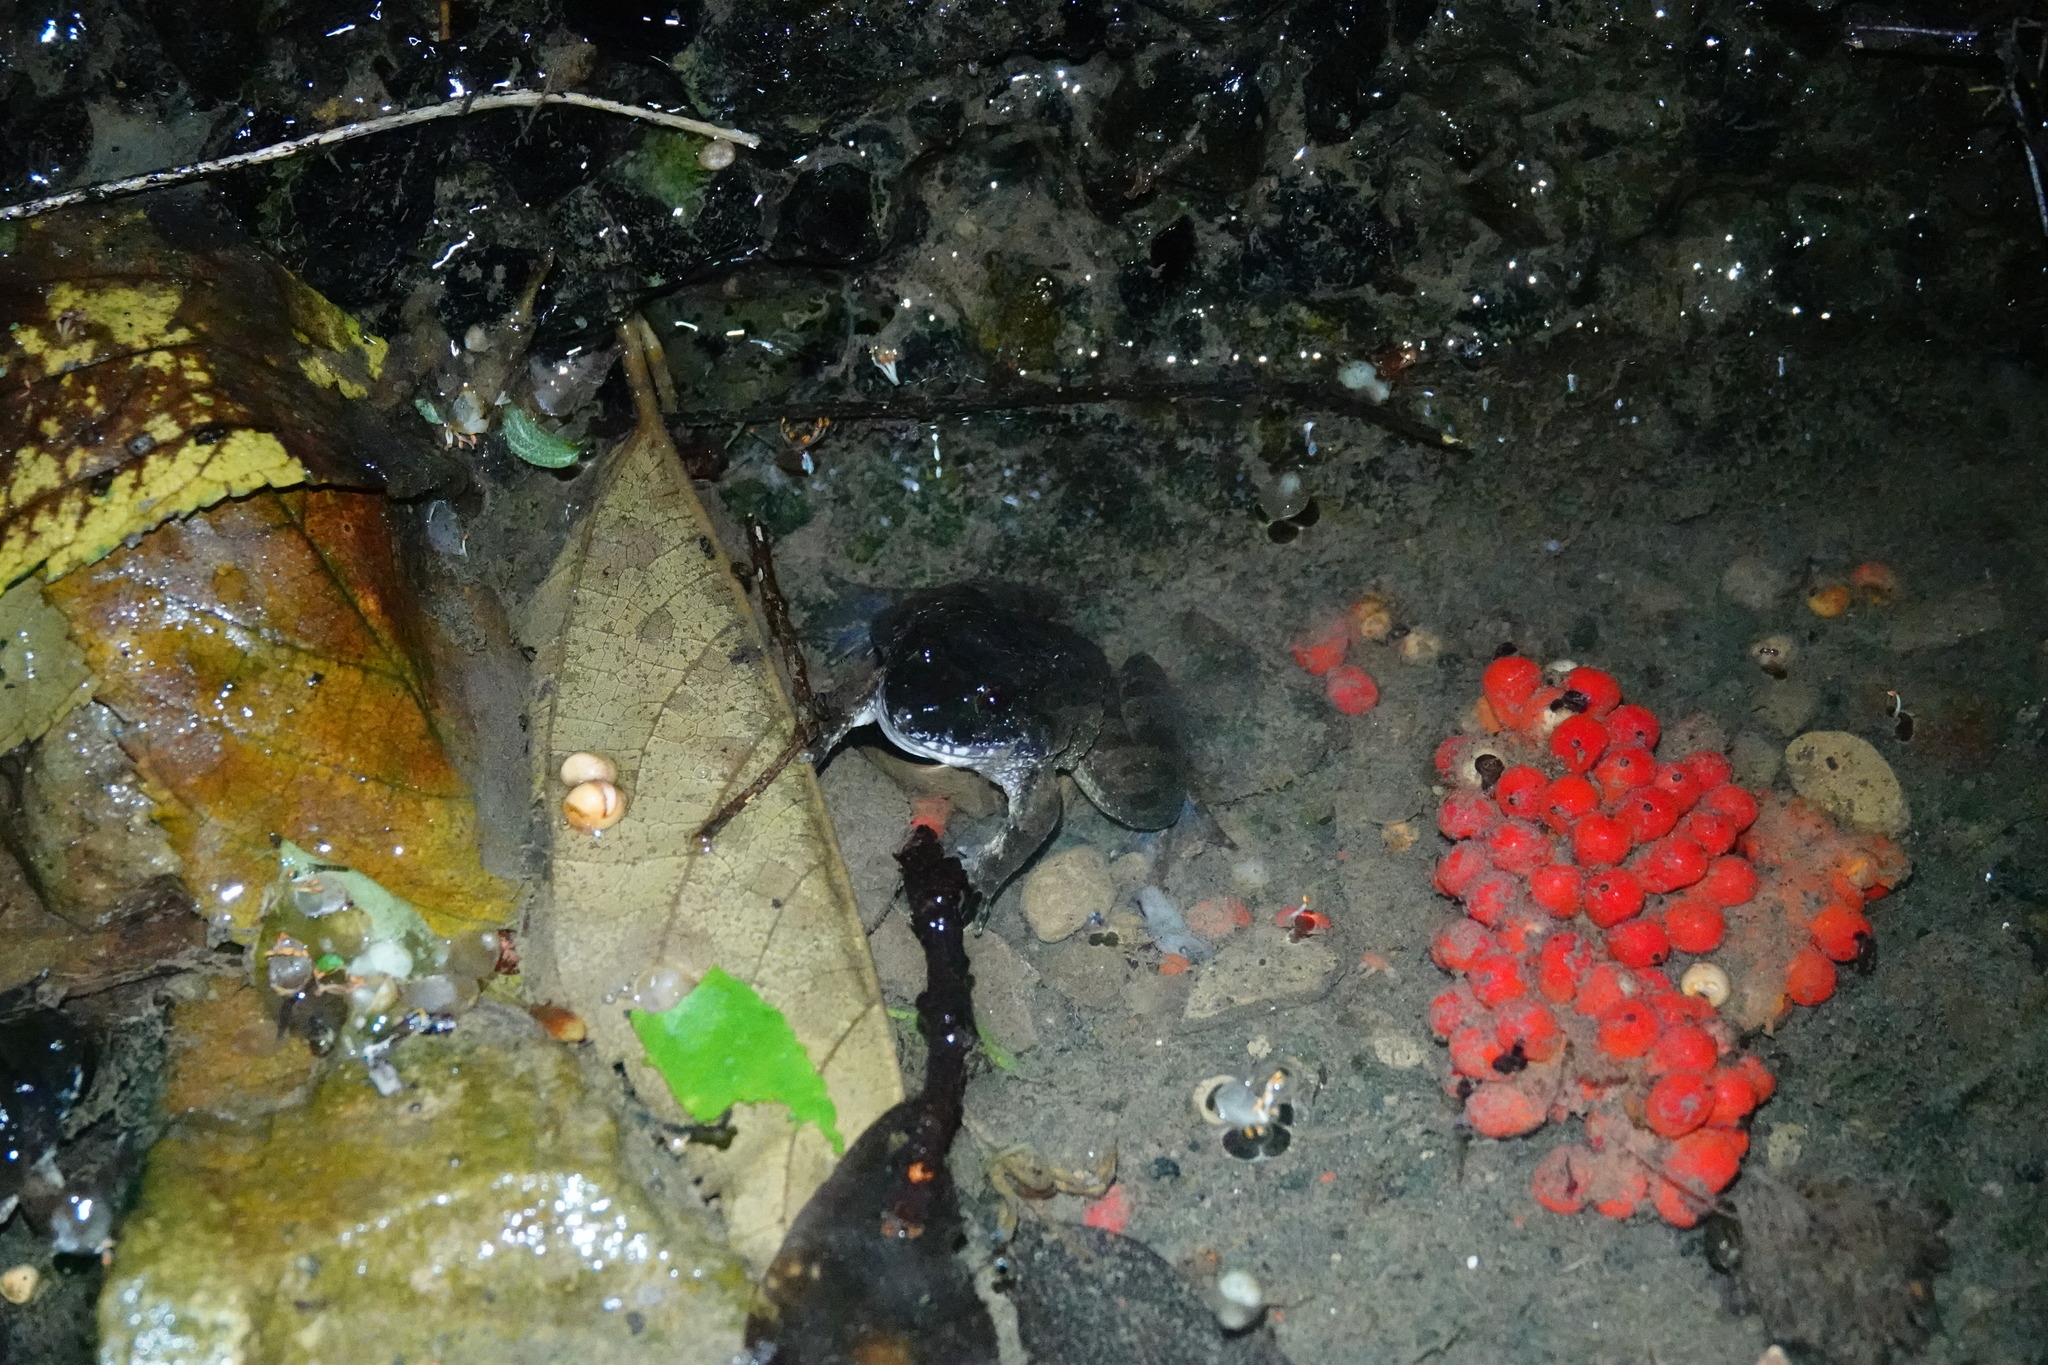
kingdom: Animalia
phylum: Chordata
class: Amphibia
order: Anura
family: Dicroglossidae
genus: Limnonectes
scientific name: Limnonectes fujianensis
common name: Fujian large-headed frog
